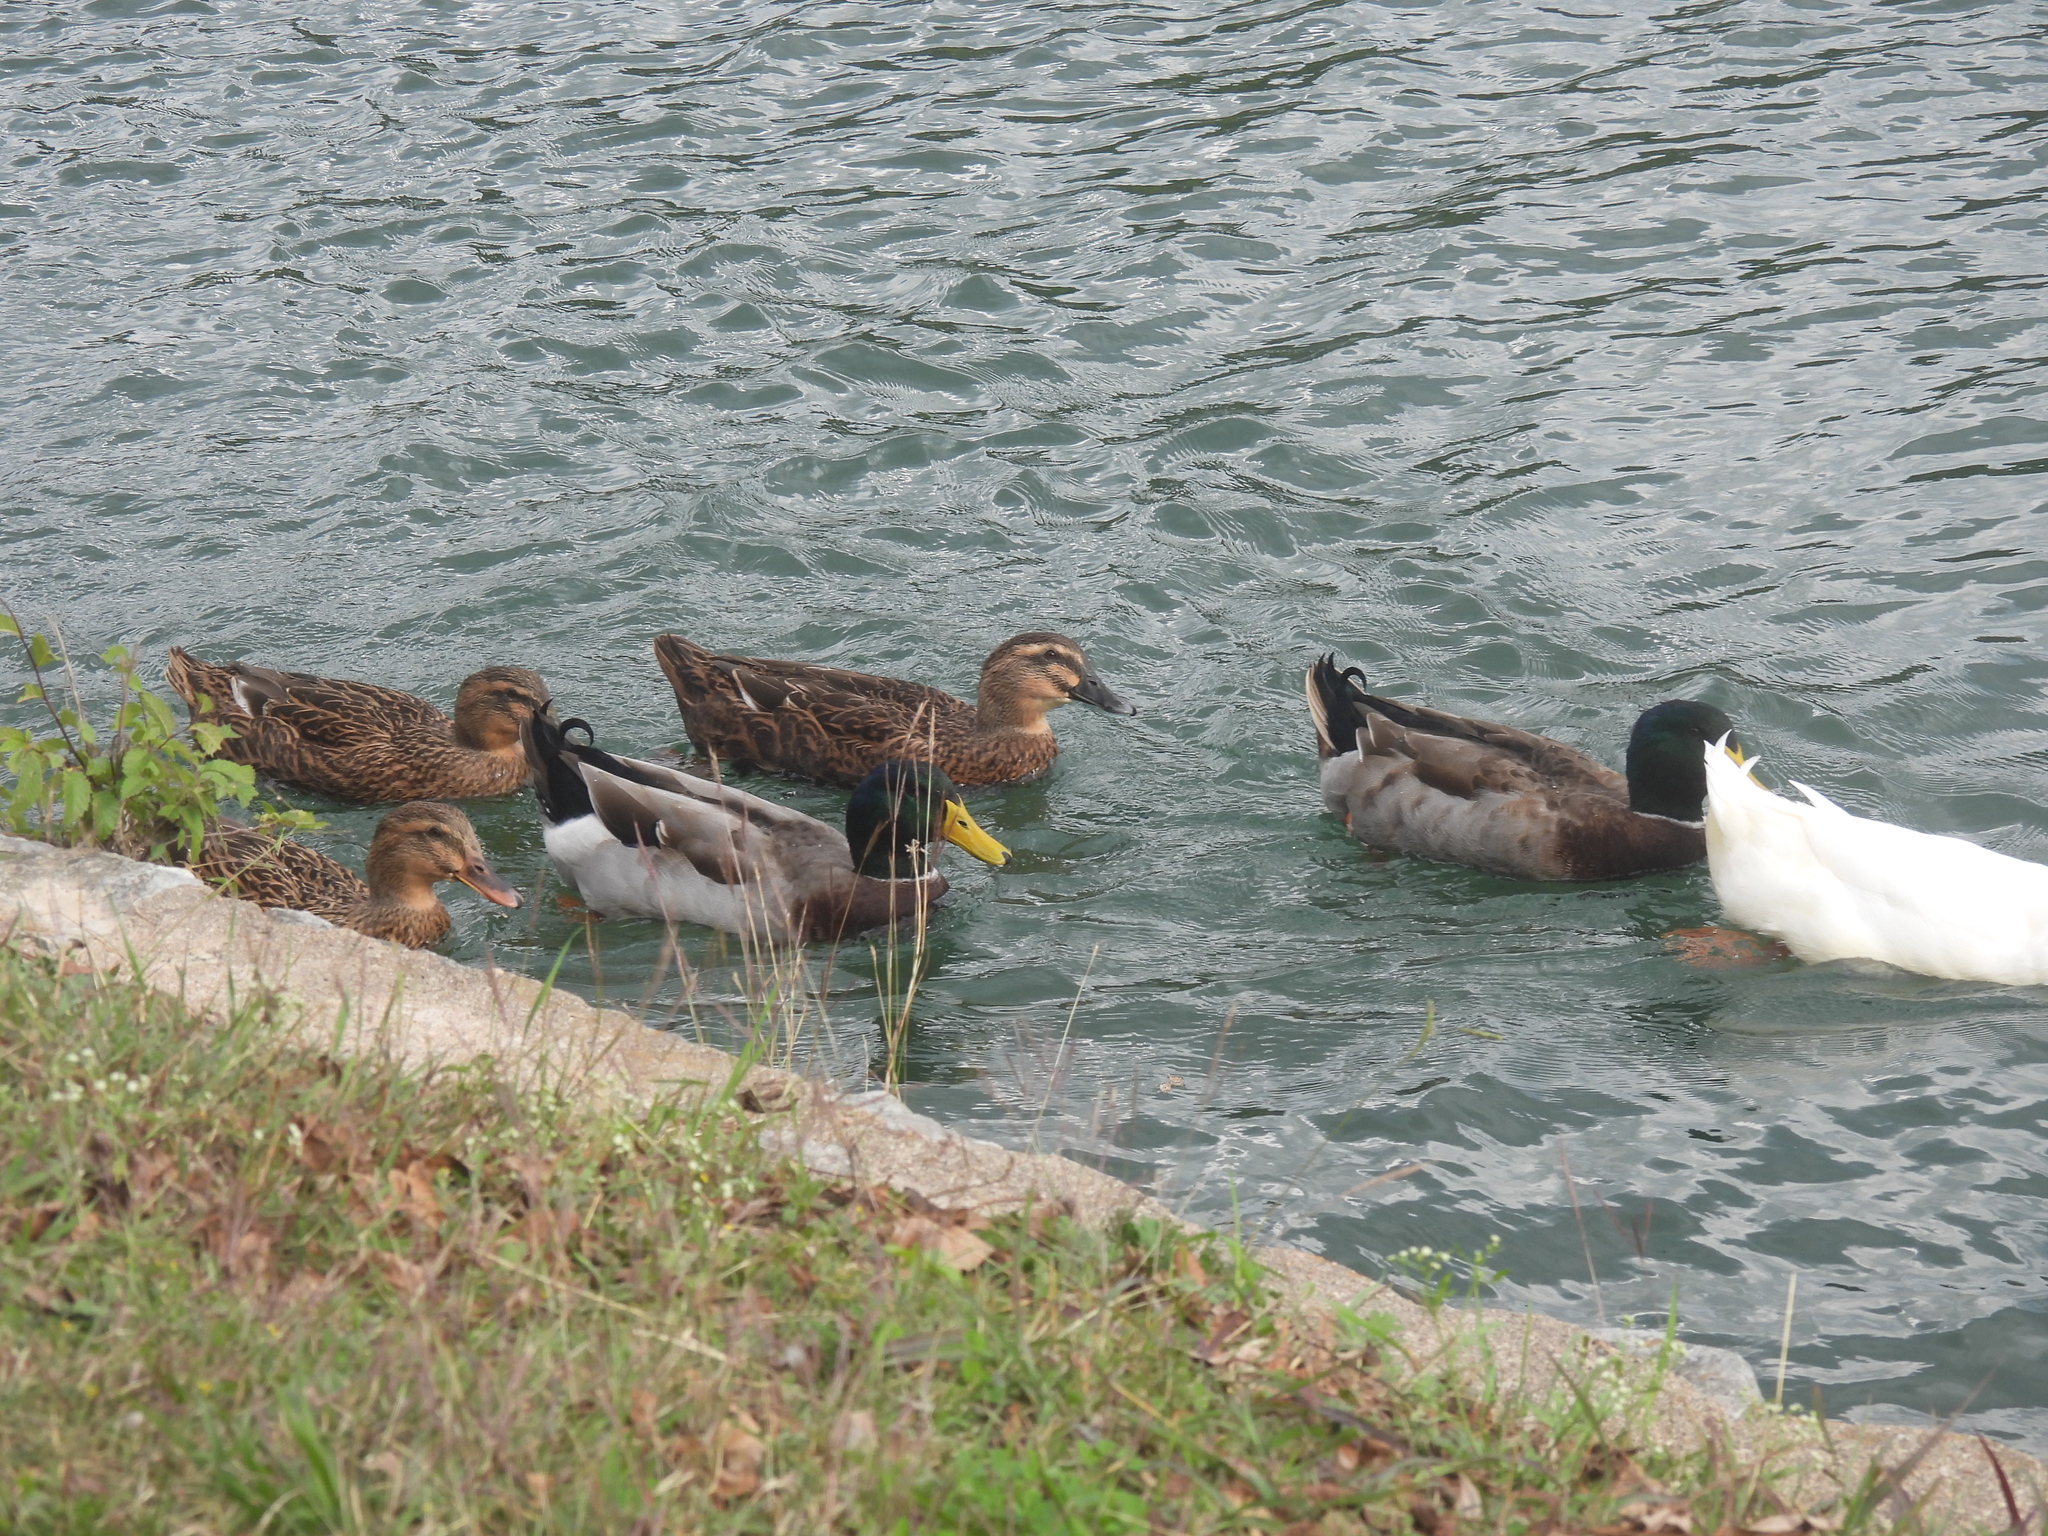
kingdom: Animalia
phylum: Chordata
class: Aves
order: Anseriformes
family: Anatidae
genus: Anas
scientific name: Anas platyrhynchos
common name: Mallard
